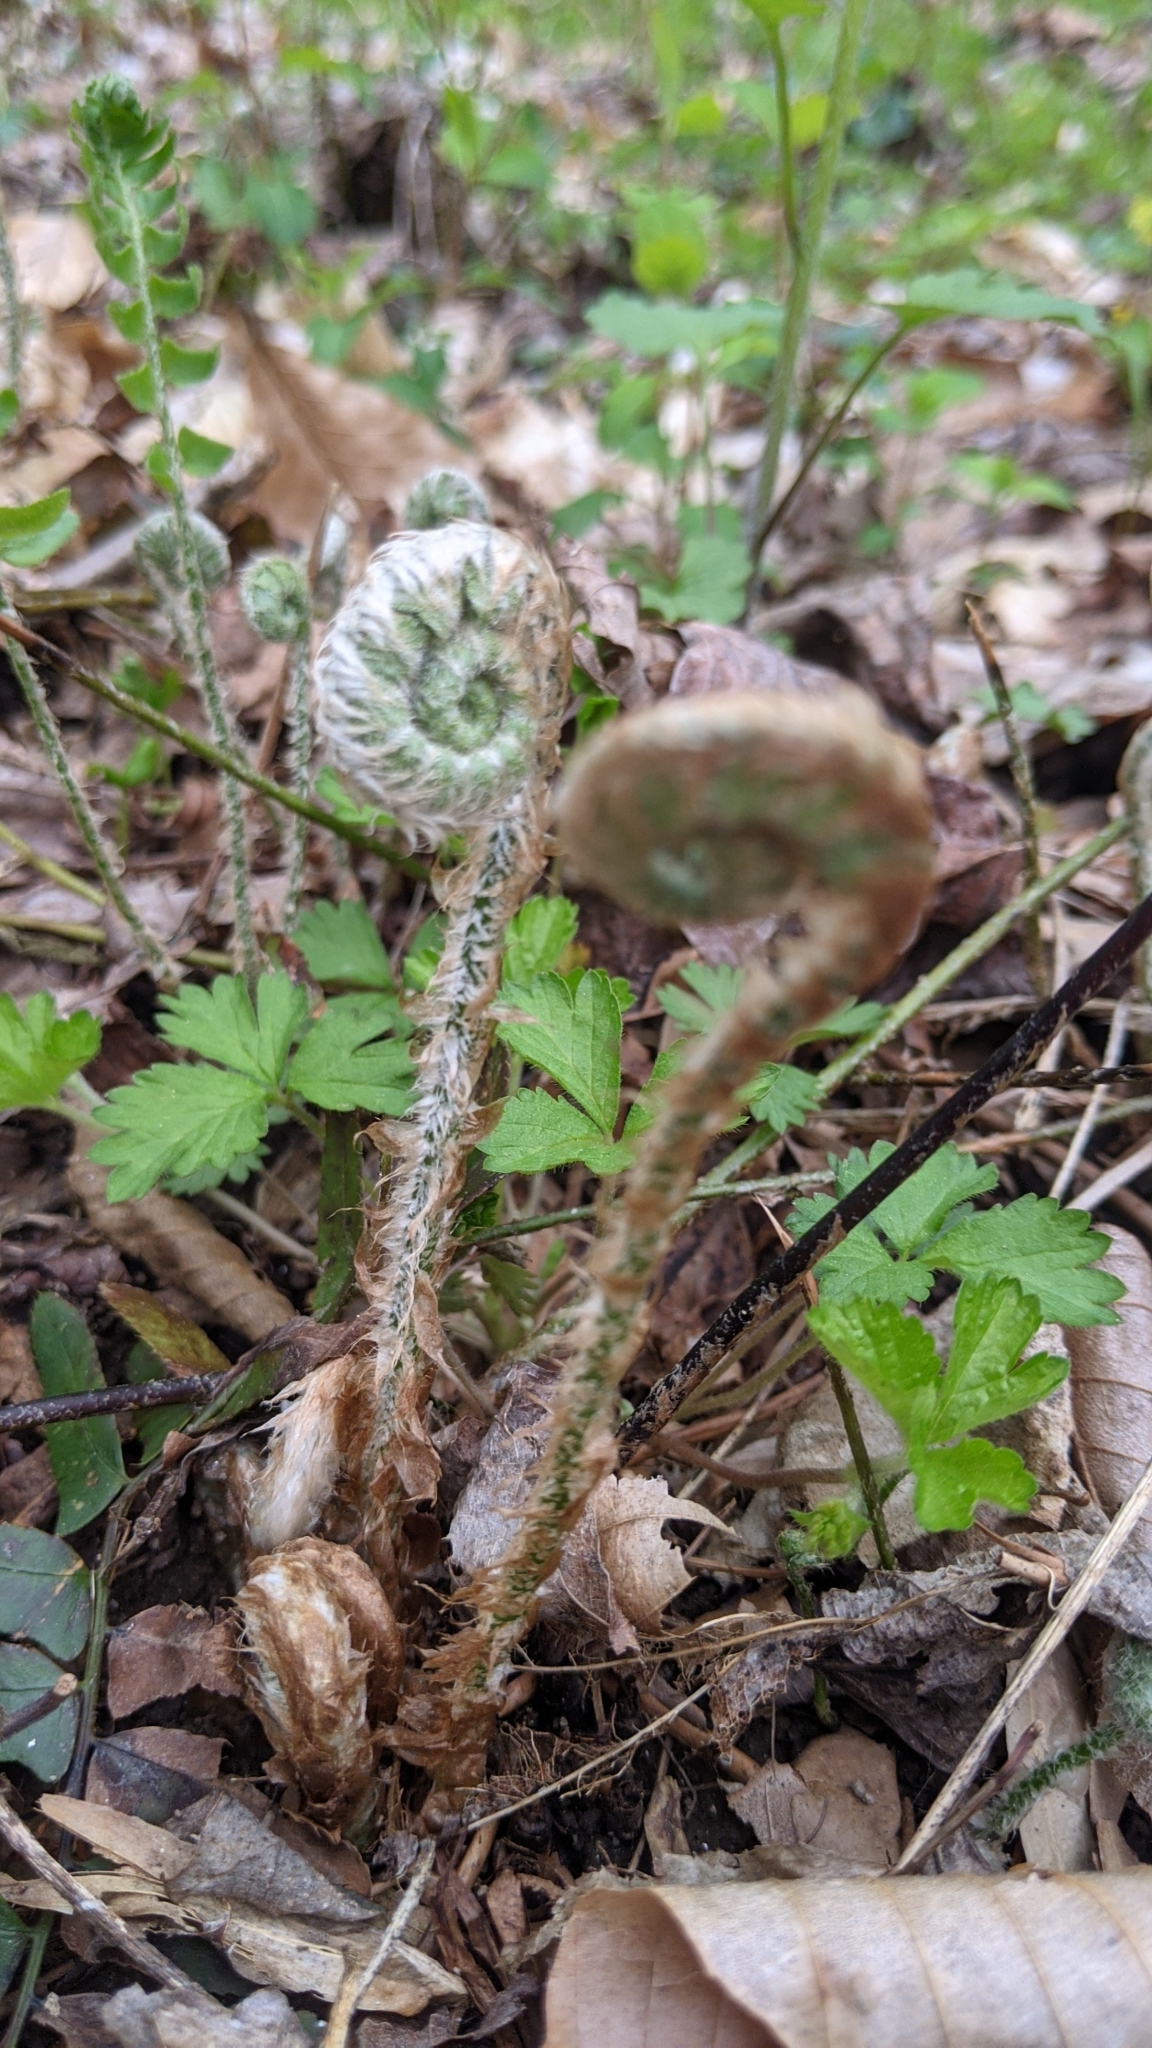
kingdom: Plantae
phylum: Tracheophyta
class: Polypodiopsida
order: Polypodiales
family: Dryopteridaceae
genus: Polystichum
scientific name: Polystichum acrostichoides
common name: Christmas fern
